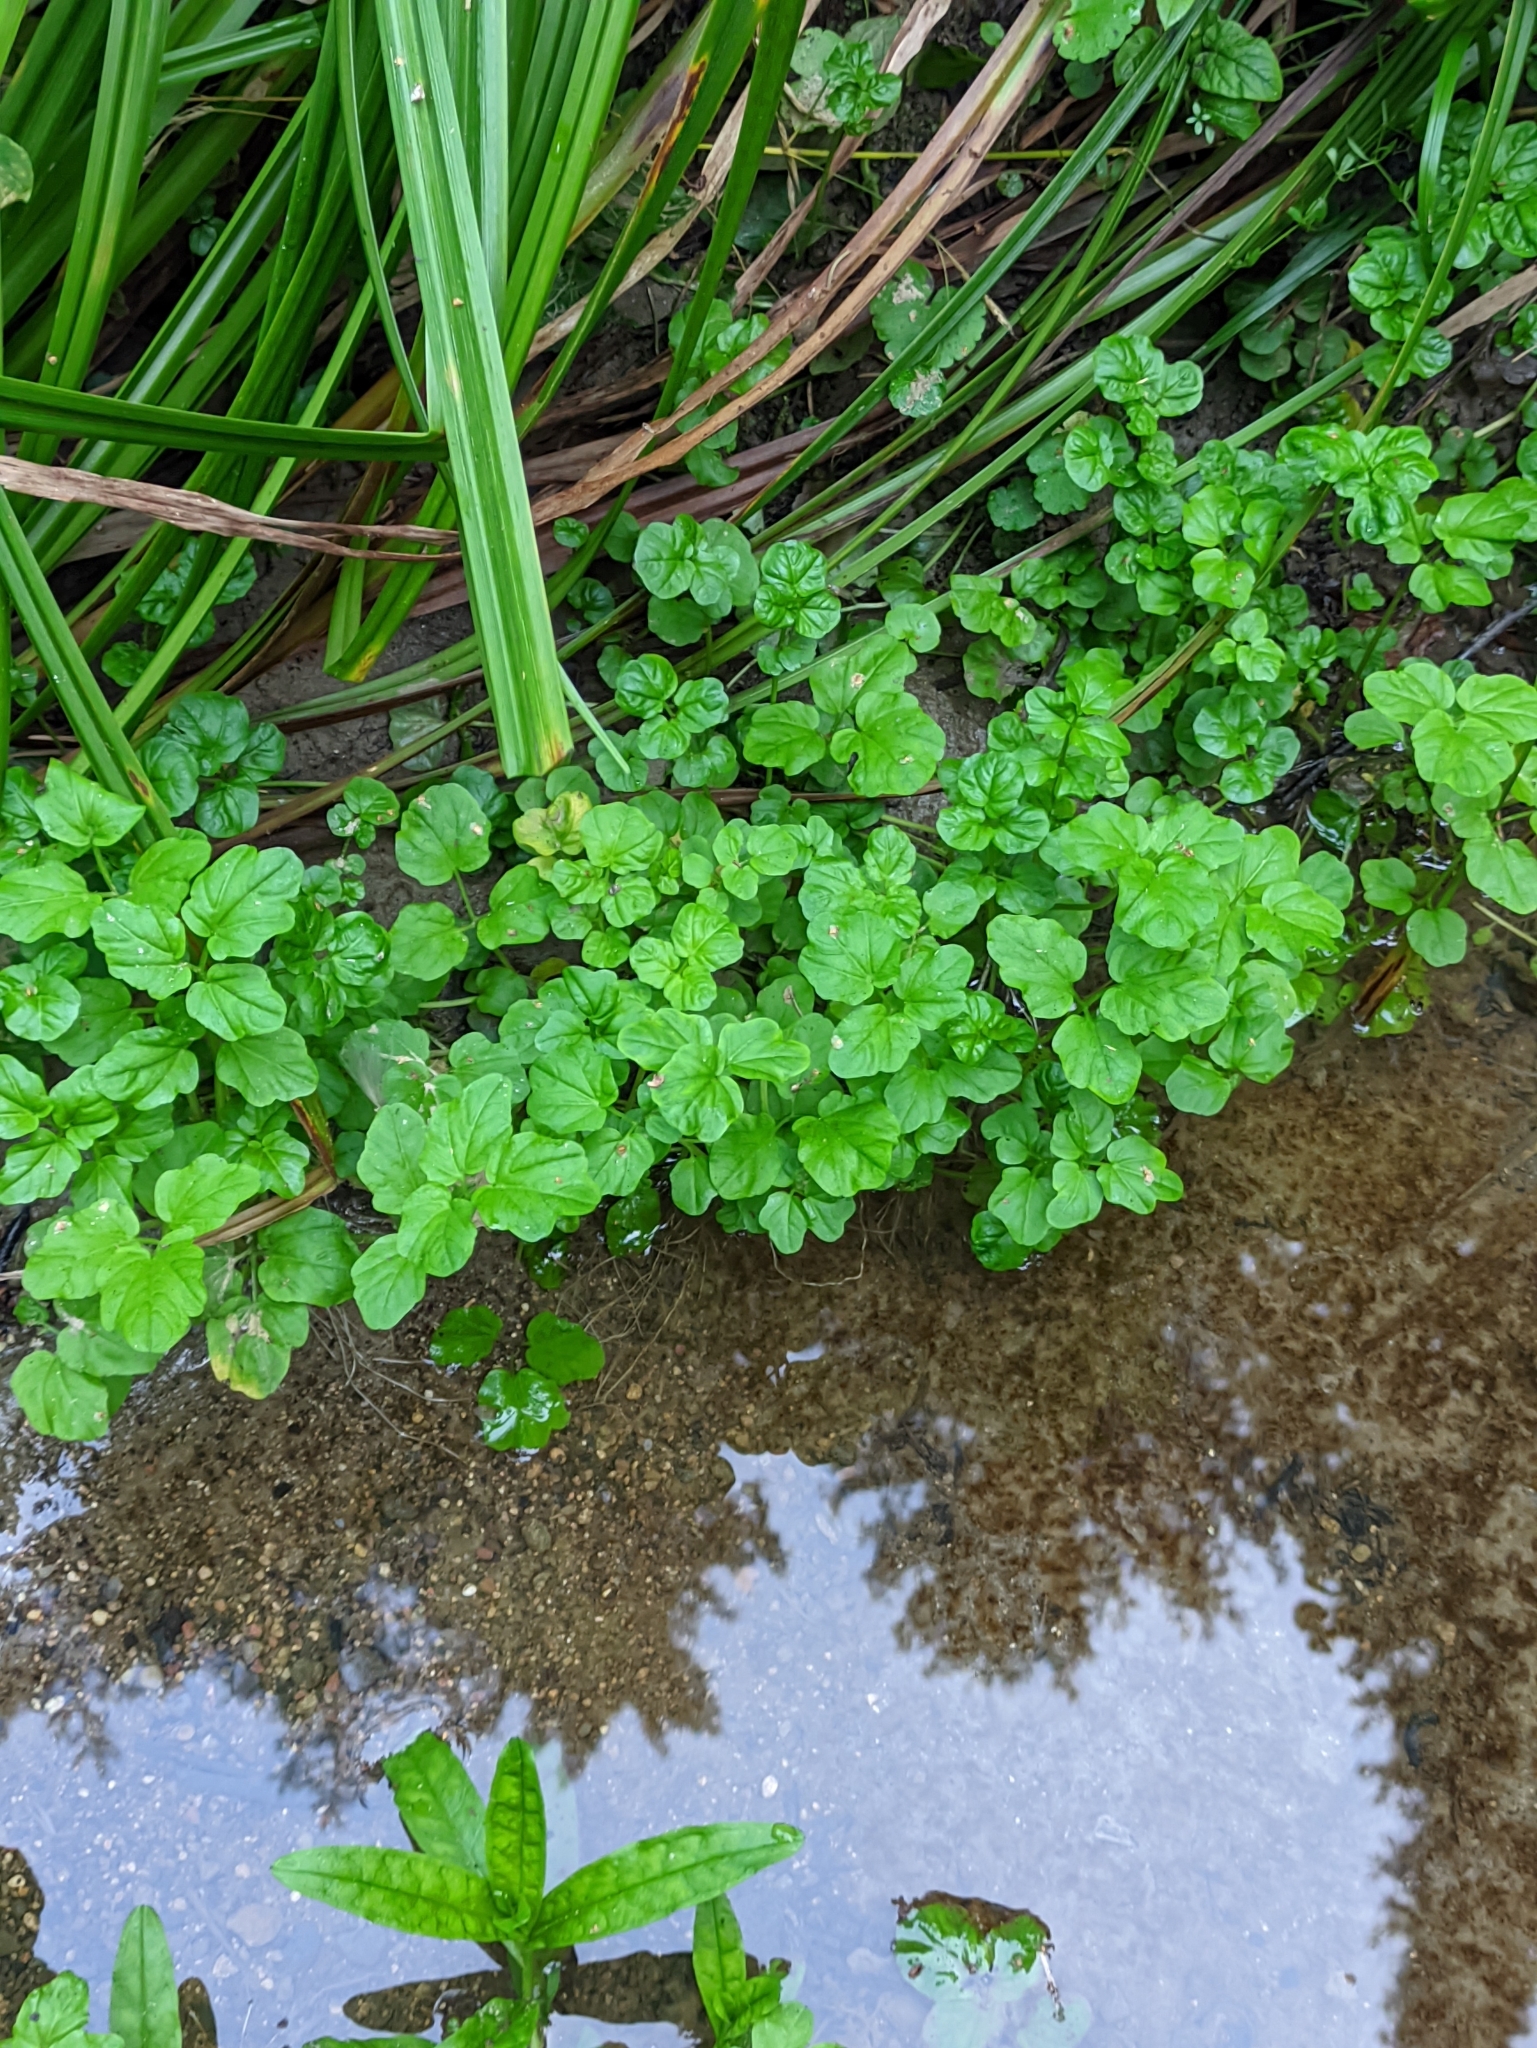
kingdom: Plantae
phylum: Tracheophyta
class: Magnoliopsida
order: Brassicales
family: Brassicaceae
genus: Cardamine
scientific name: Cardamine amara
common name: Large bitter-cress
